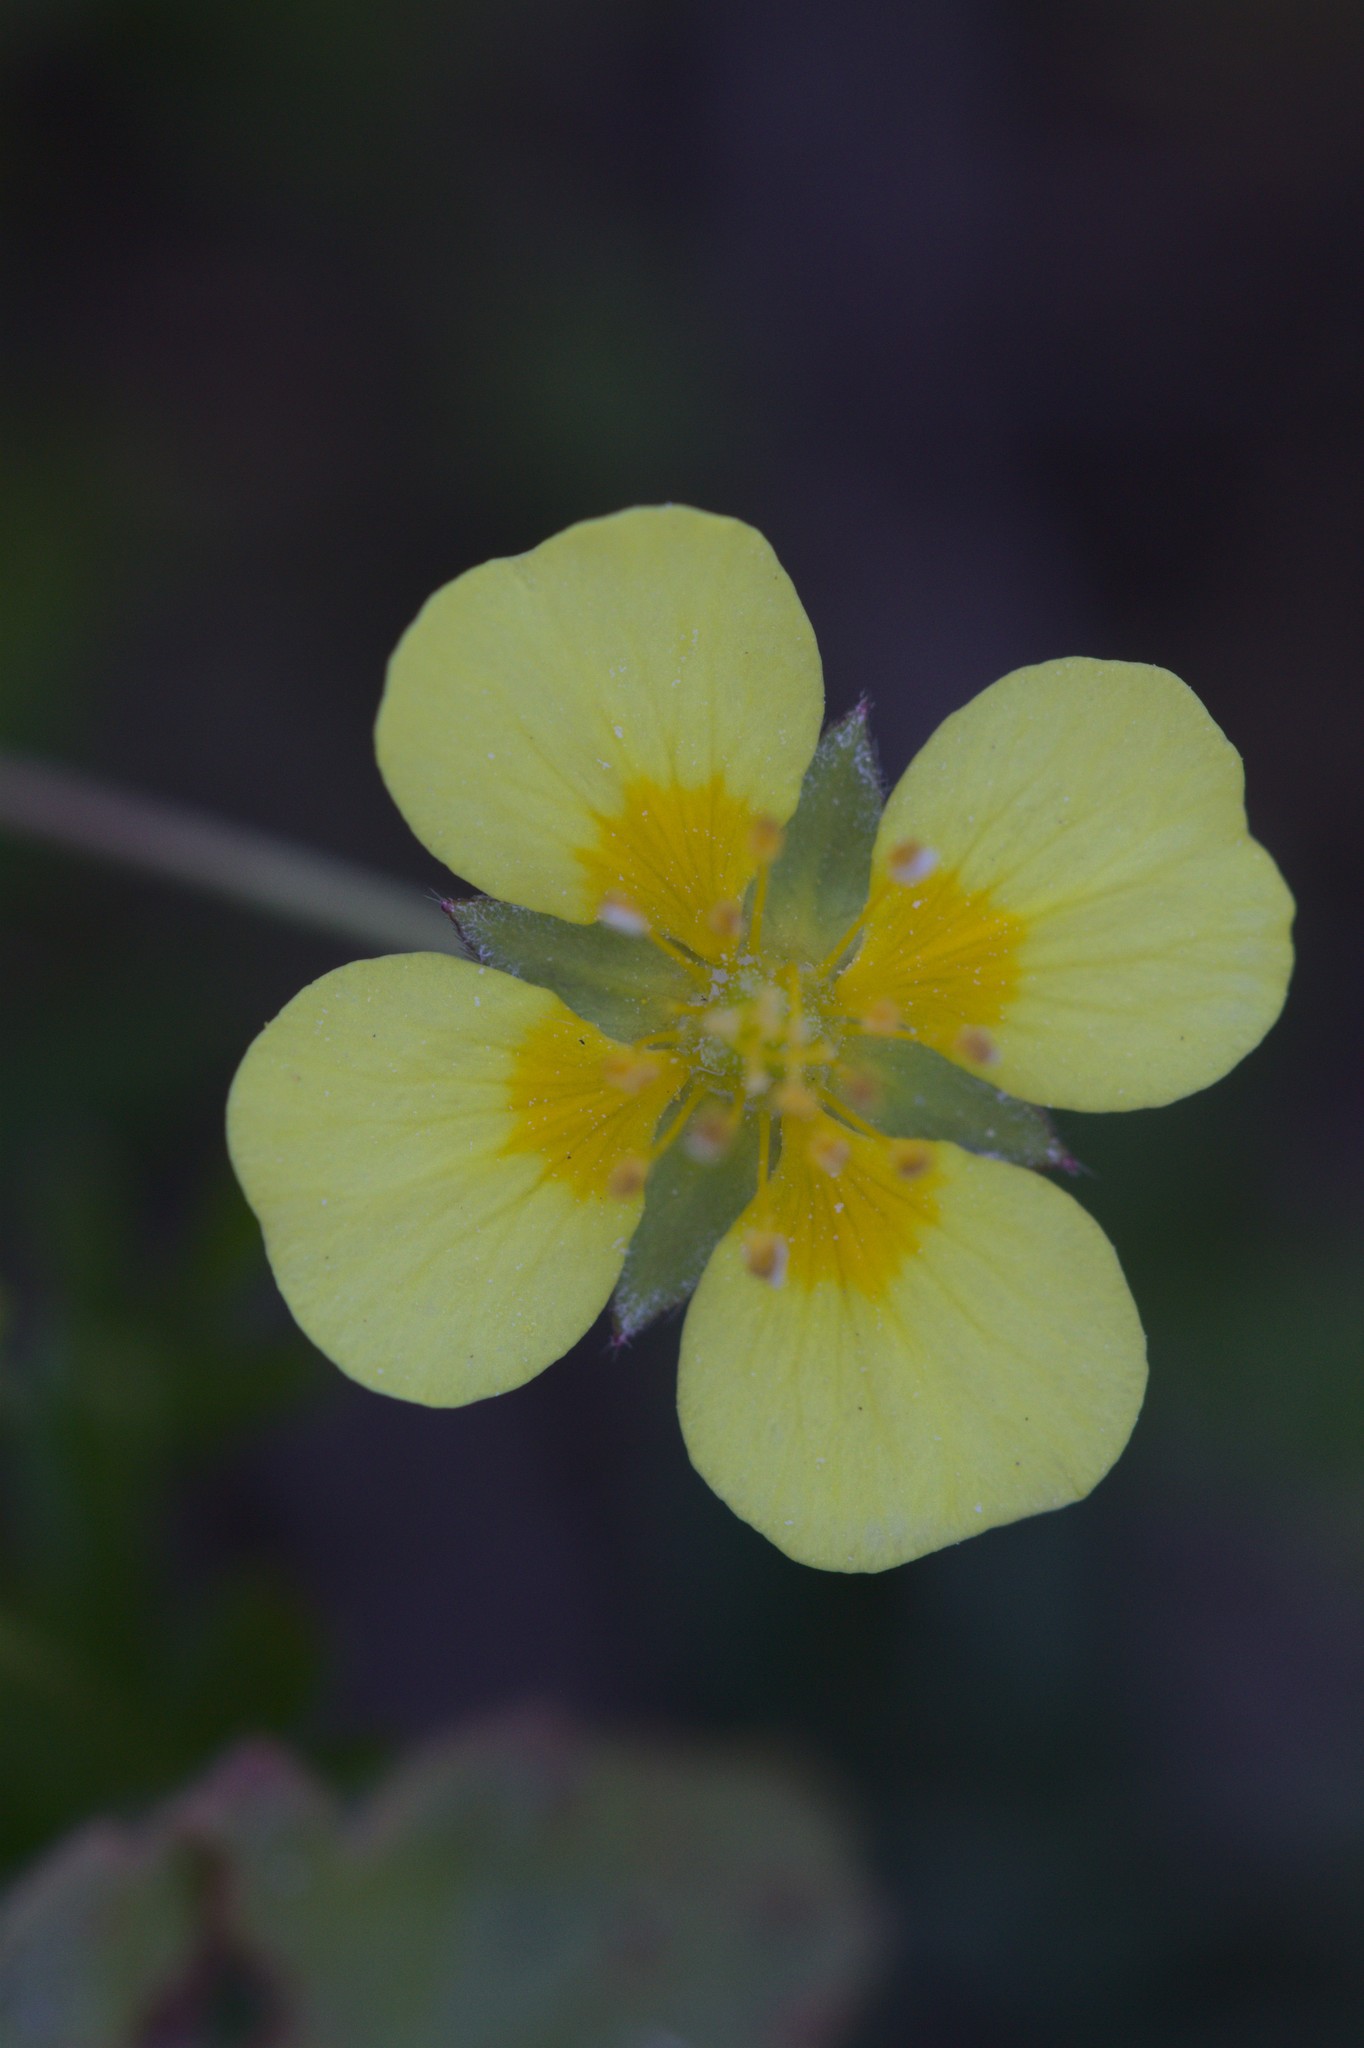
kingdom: Plantae
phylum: Tracheophyta
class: Magnoliopsida
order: Rosales
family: Rosaceae
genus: Potentilla
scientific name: Potentilla erecta
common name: Tormentil
